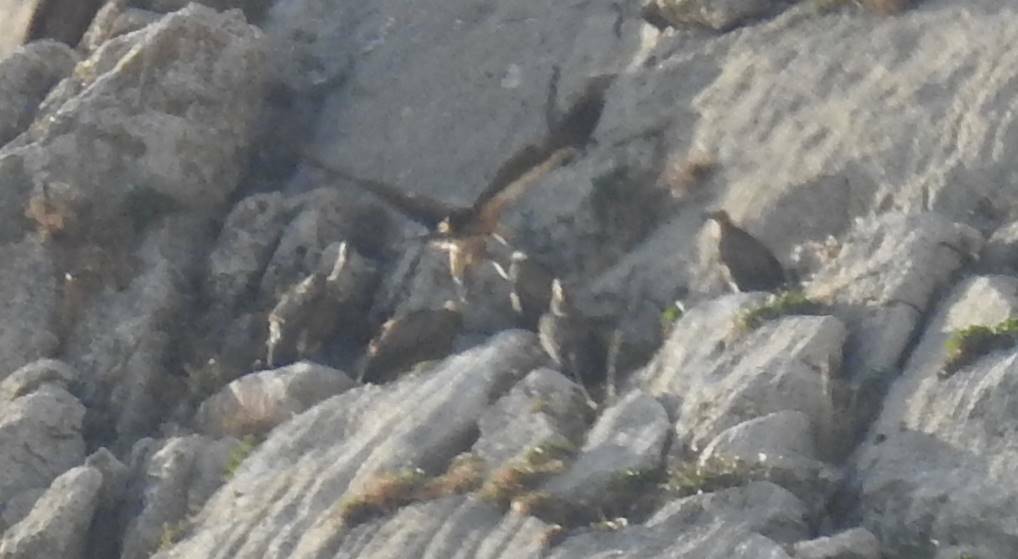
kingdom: Animalia
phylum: Chordata
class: Aves
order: Accipitriformes
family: Accipitridae
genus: Gyps
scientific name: Gyps fulvus
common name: Griffon vulture
